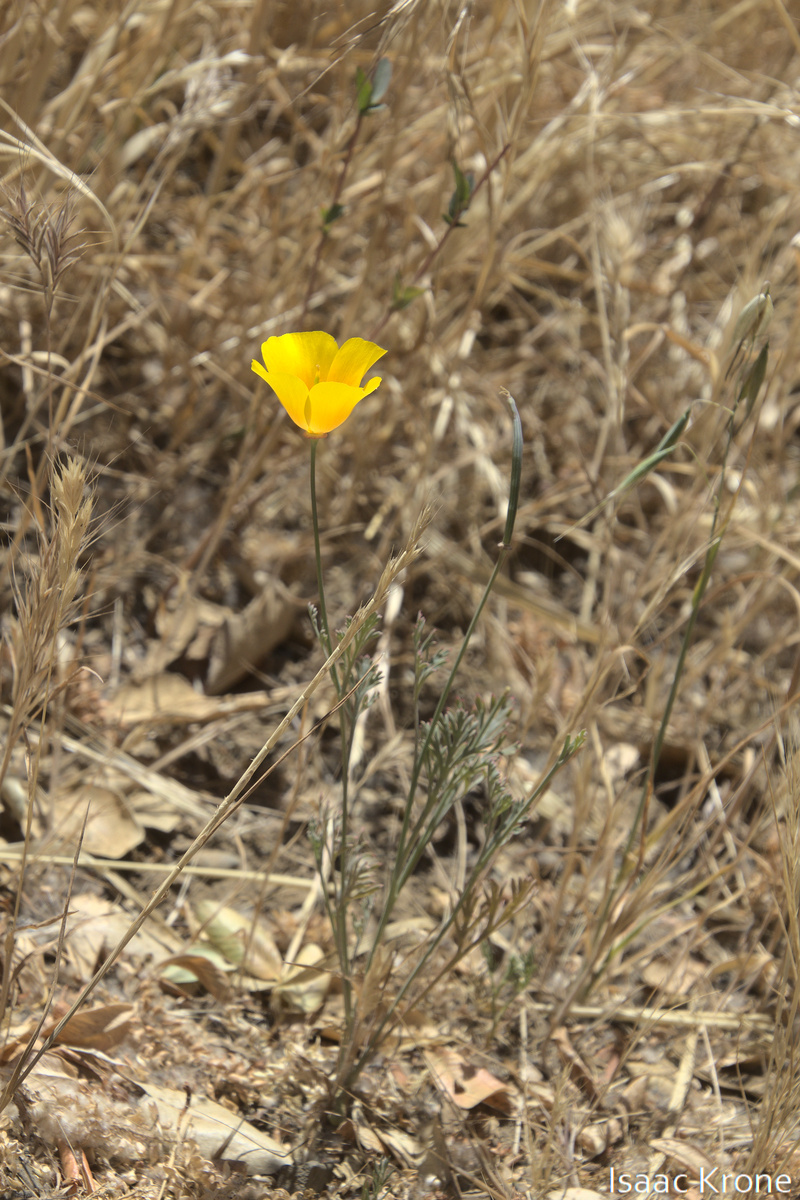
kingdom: Plantae
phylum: Tracheophyta
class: Magnoliopsida
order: Ranunculales
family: Papaveraceae
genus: Eschscholzia
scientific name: Eschscholzia californica
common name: California poppy
